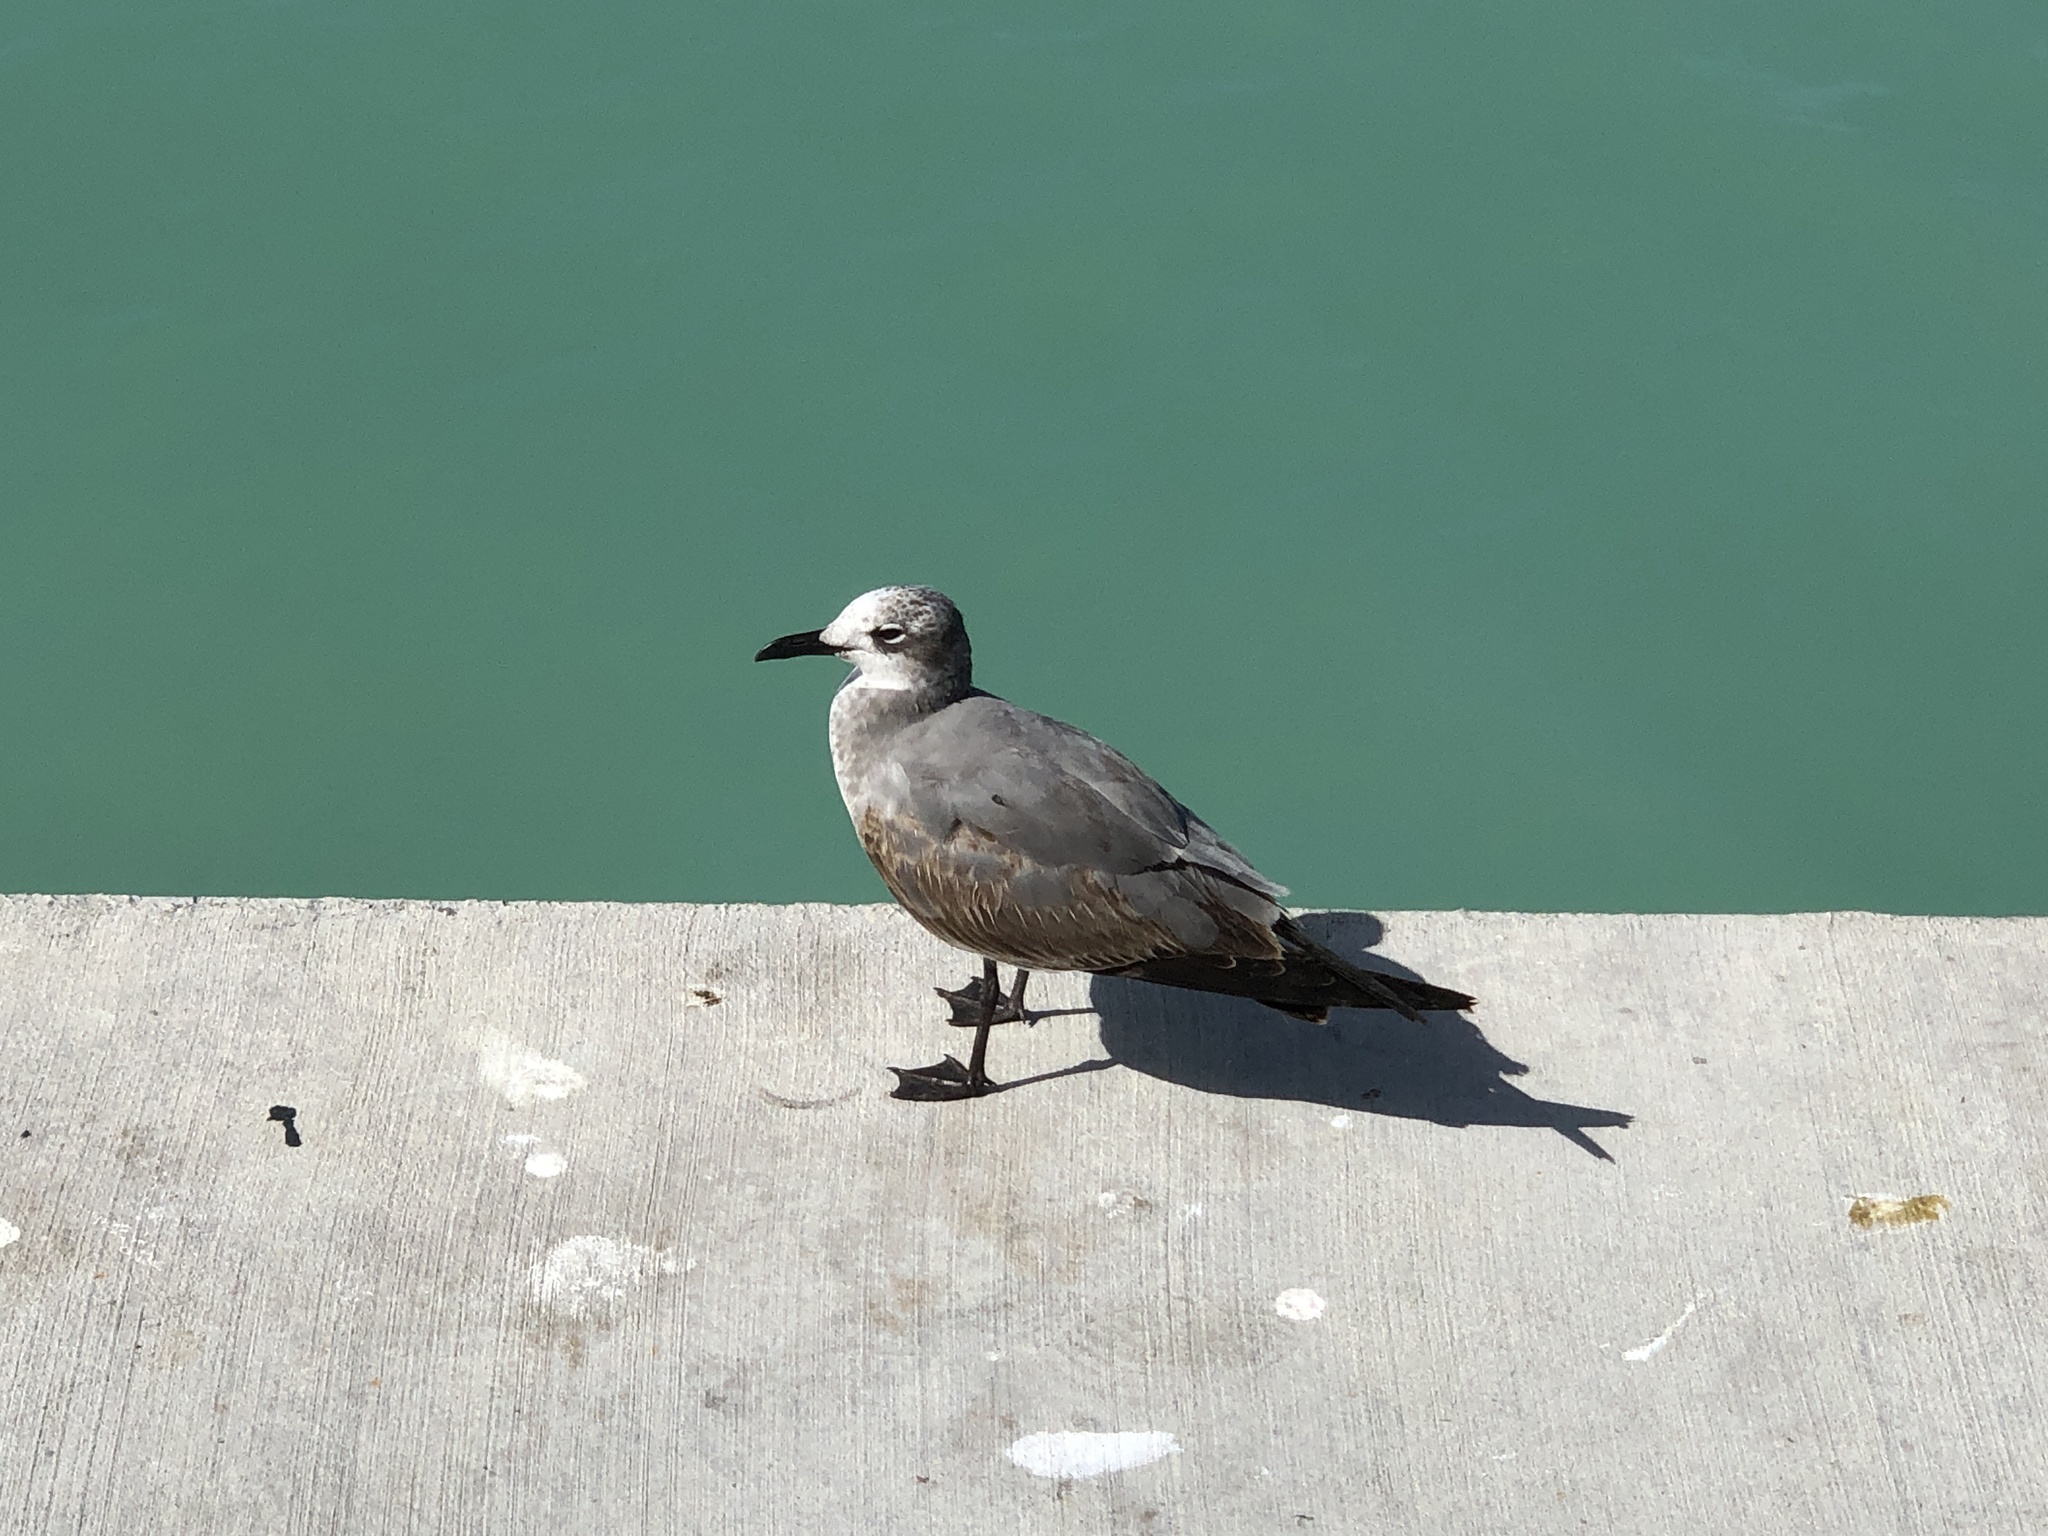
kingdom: Animalia
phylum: Chordata
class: Aves
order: Charadriiformes
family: Laridae
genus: Leucophaeus
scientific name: Leucophaeus atricilla
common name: Laughing gull
